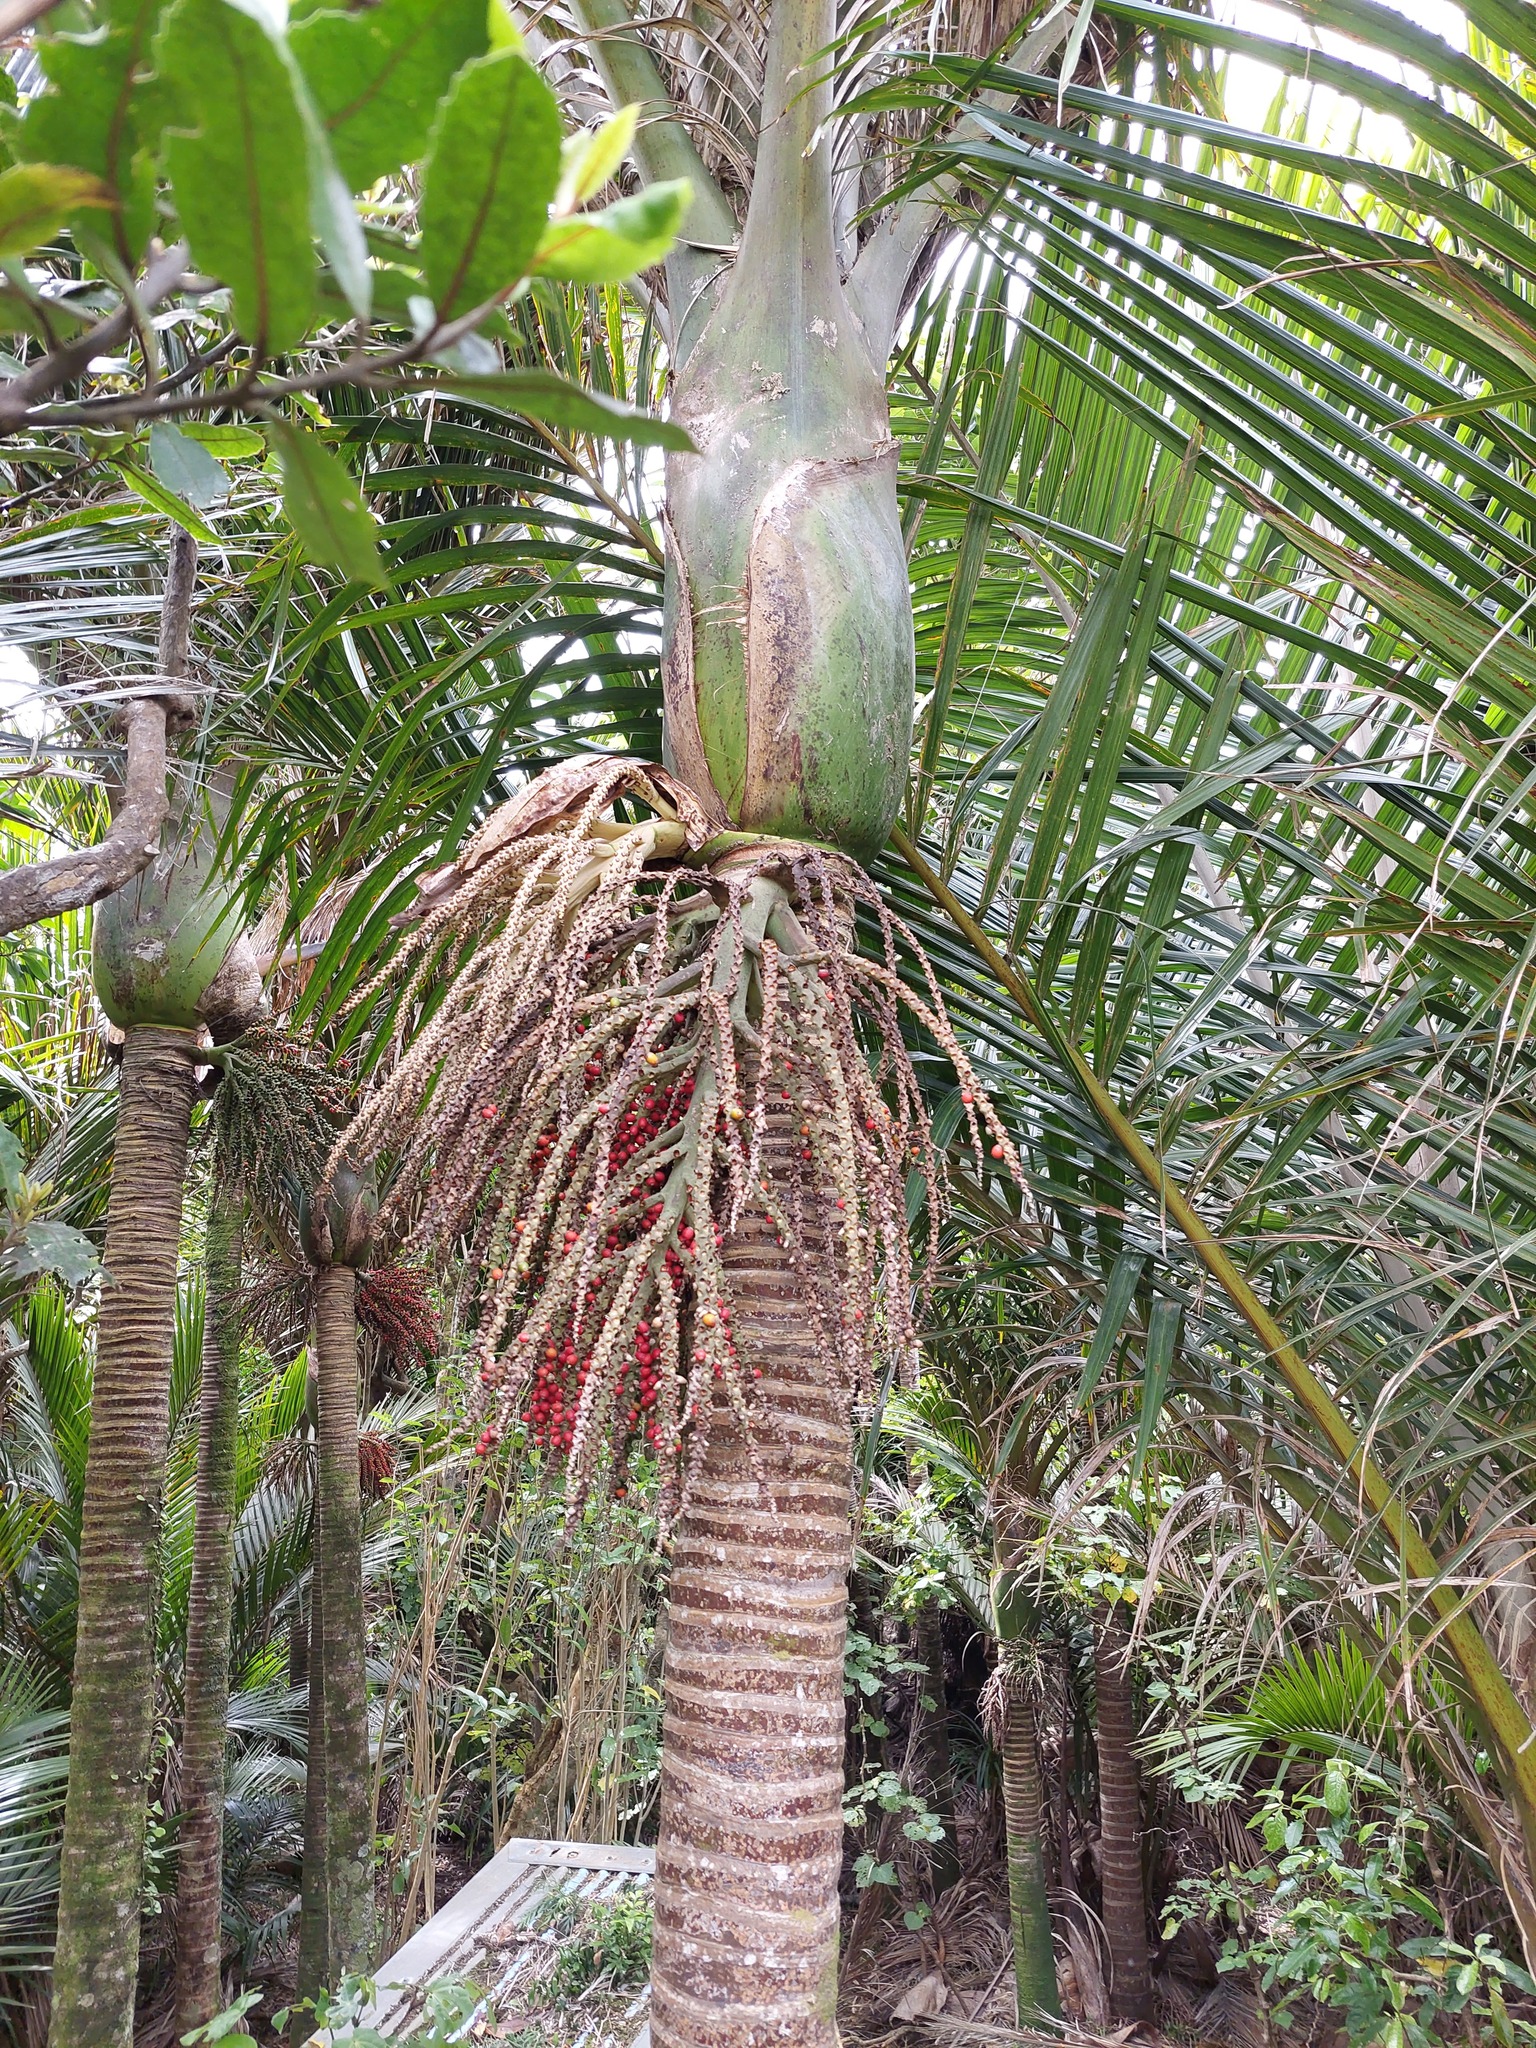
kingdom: Plantae
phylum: Tracheophyta
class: Liliopsida
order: Arecales
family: Arecaceae
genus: Rhopalostylis
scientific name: Rhopalostylis sapida
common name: Feather-duster palm
